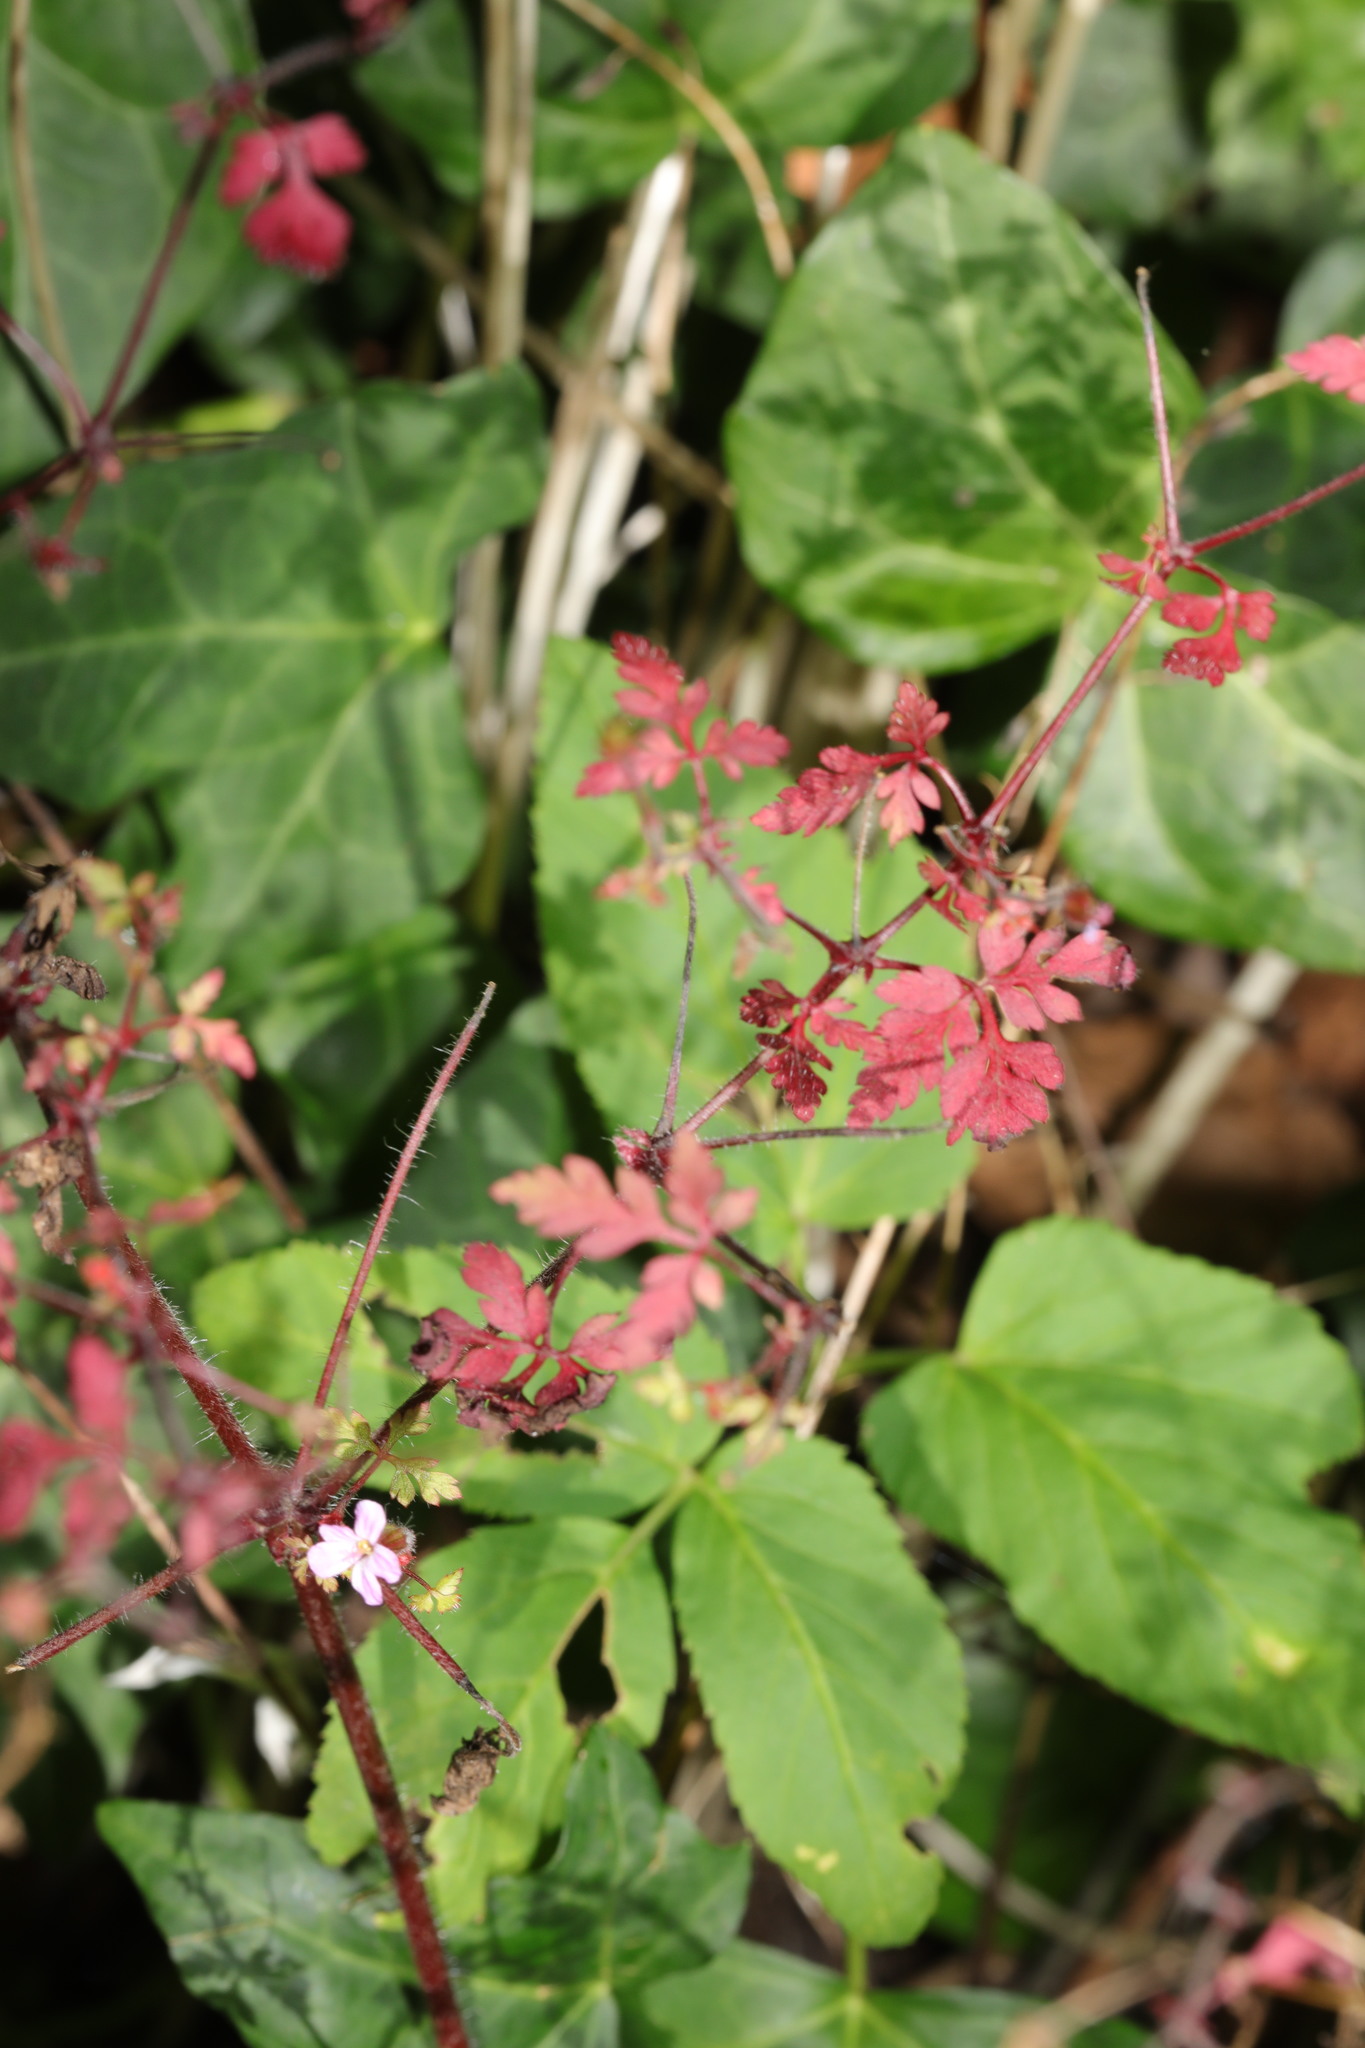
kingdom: Plantae
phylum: Tracheophyta
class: Magnoliopsida
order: Geraniales
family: Geraniaceae
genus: Geranium
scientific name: Geranium robertianum
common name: Herb-robert
